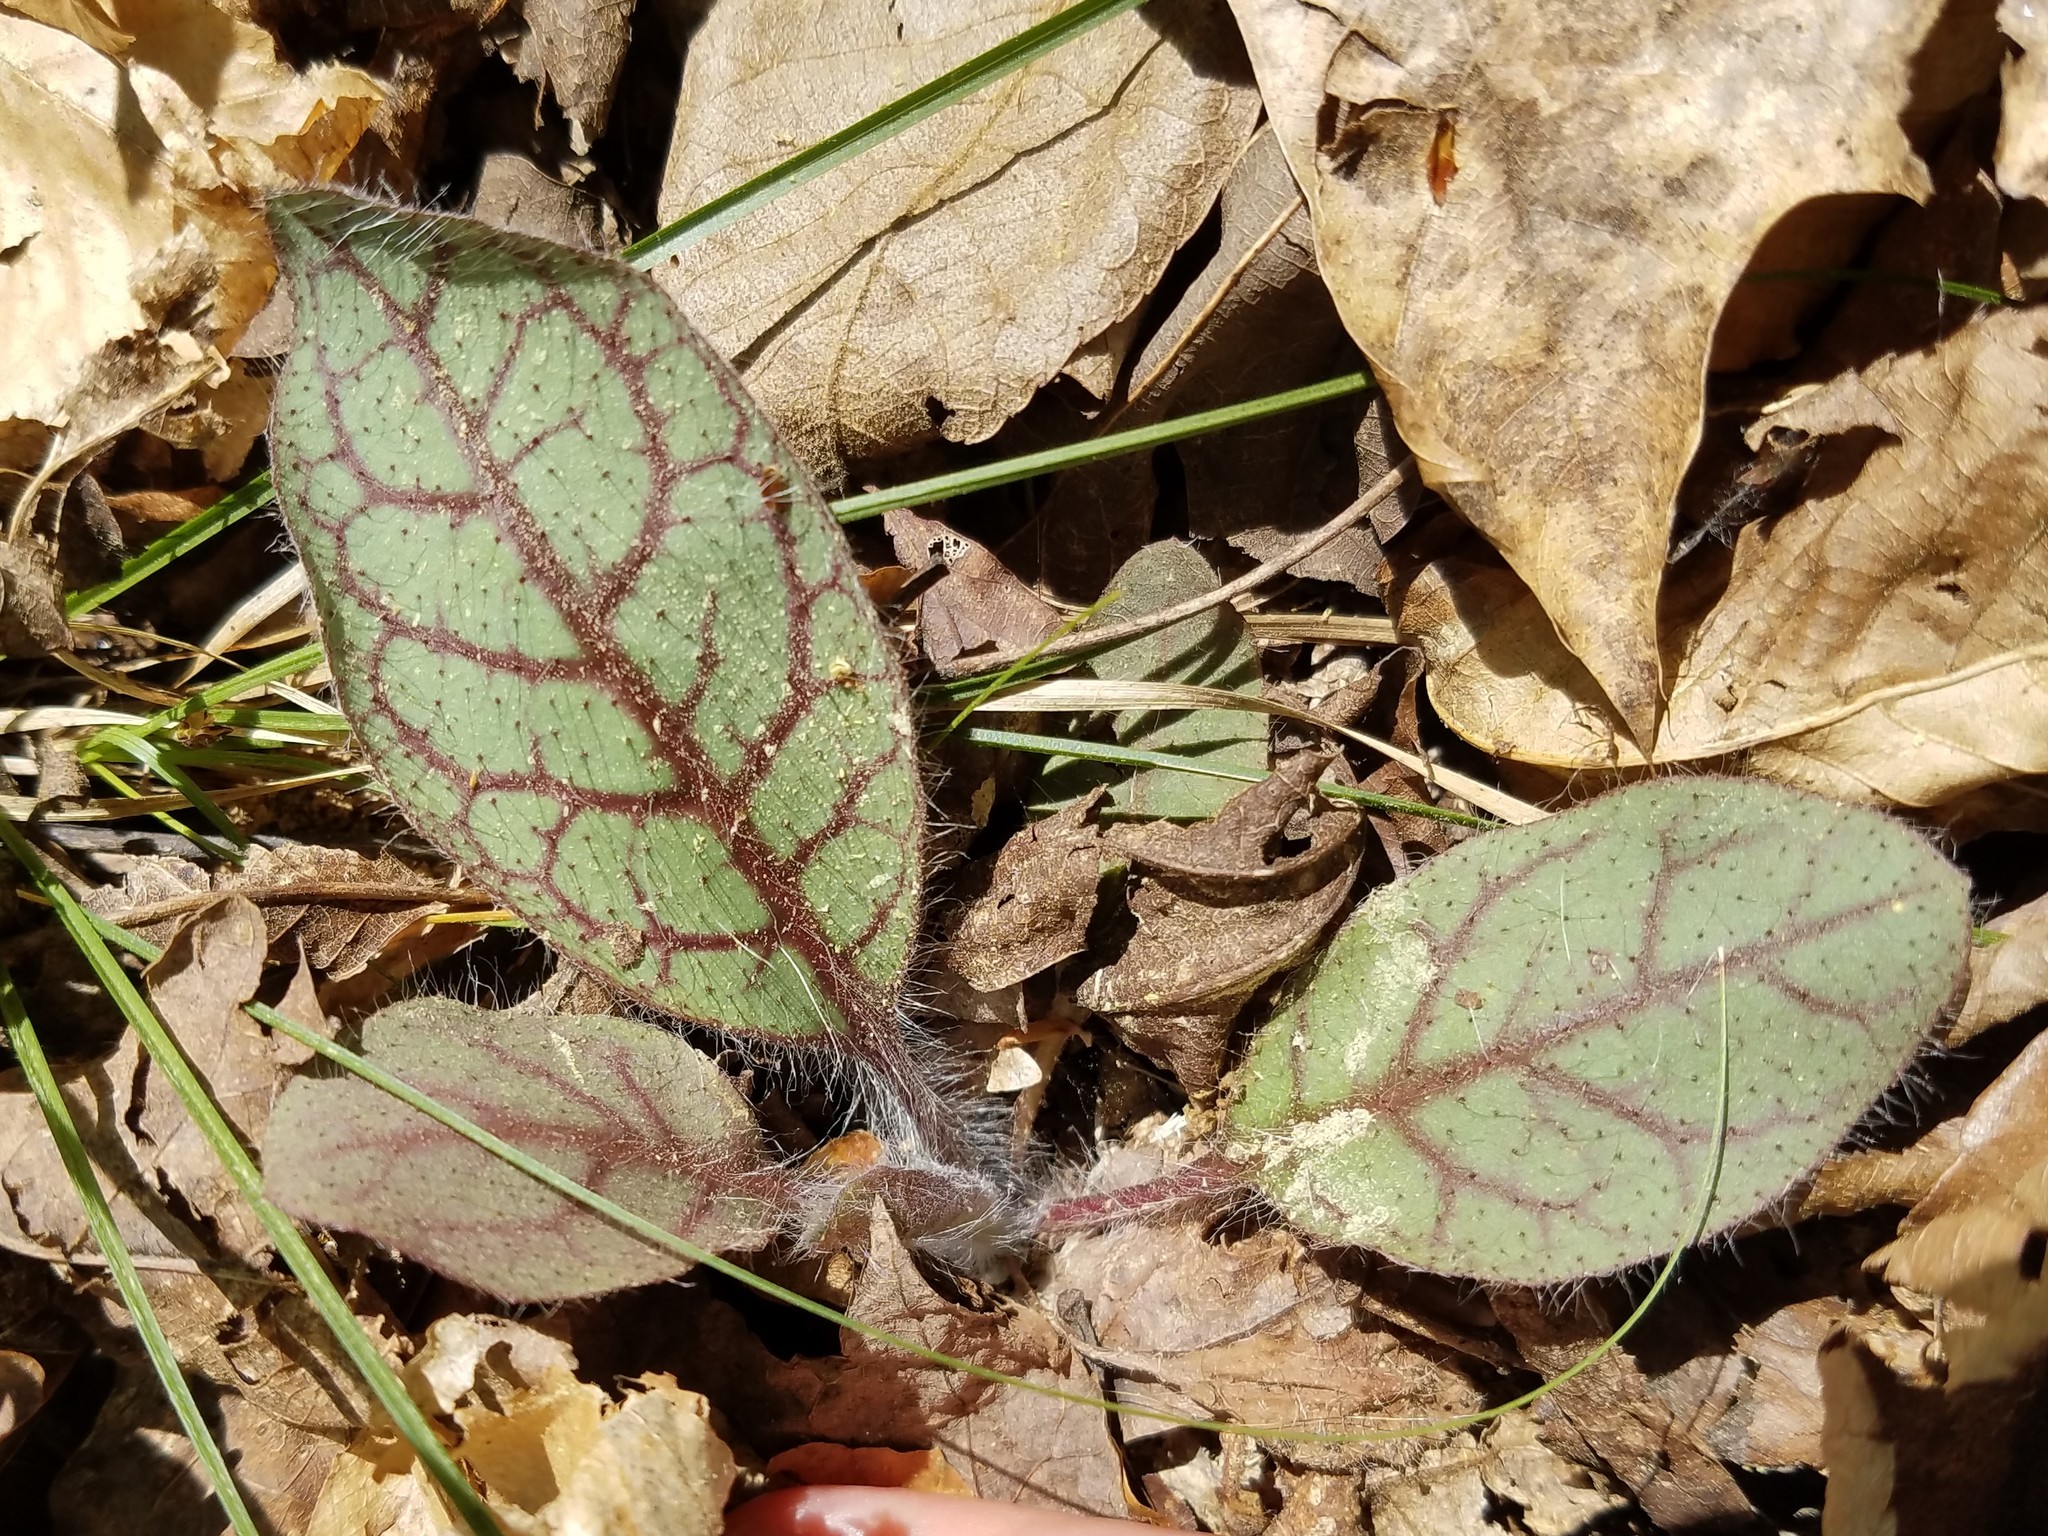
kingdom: Plantae
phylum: Tracheophyta
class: Magnoliopsida
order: Asterales
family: Asteraceae
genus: Hieracium
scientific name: Hieracium venosum
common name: Rattlesnake hawkweed
